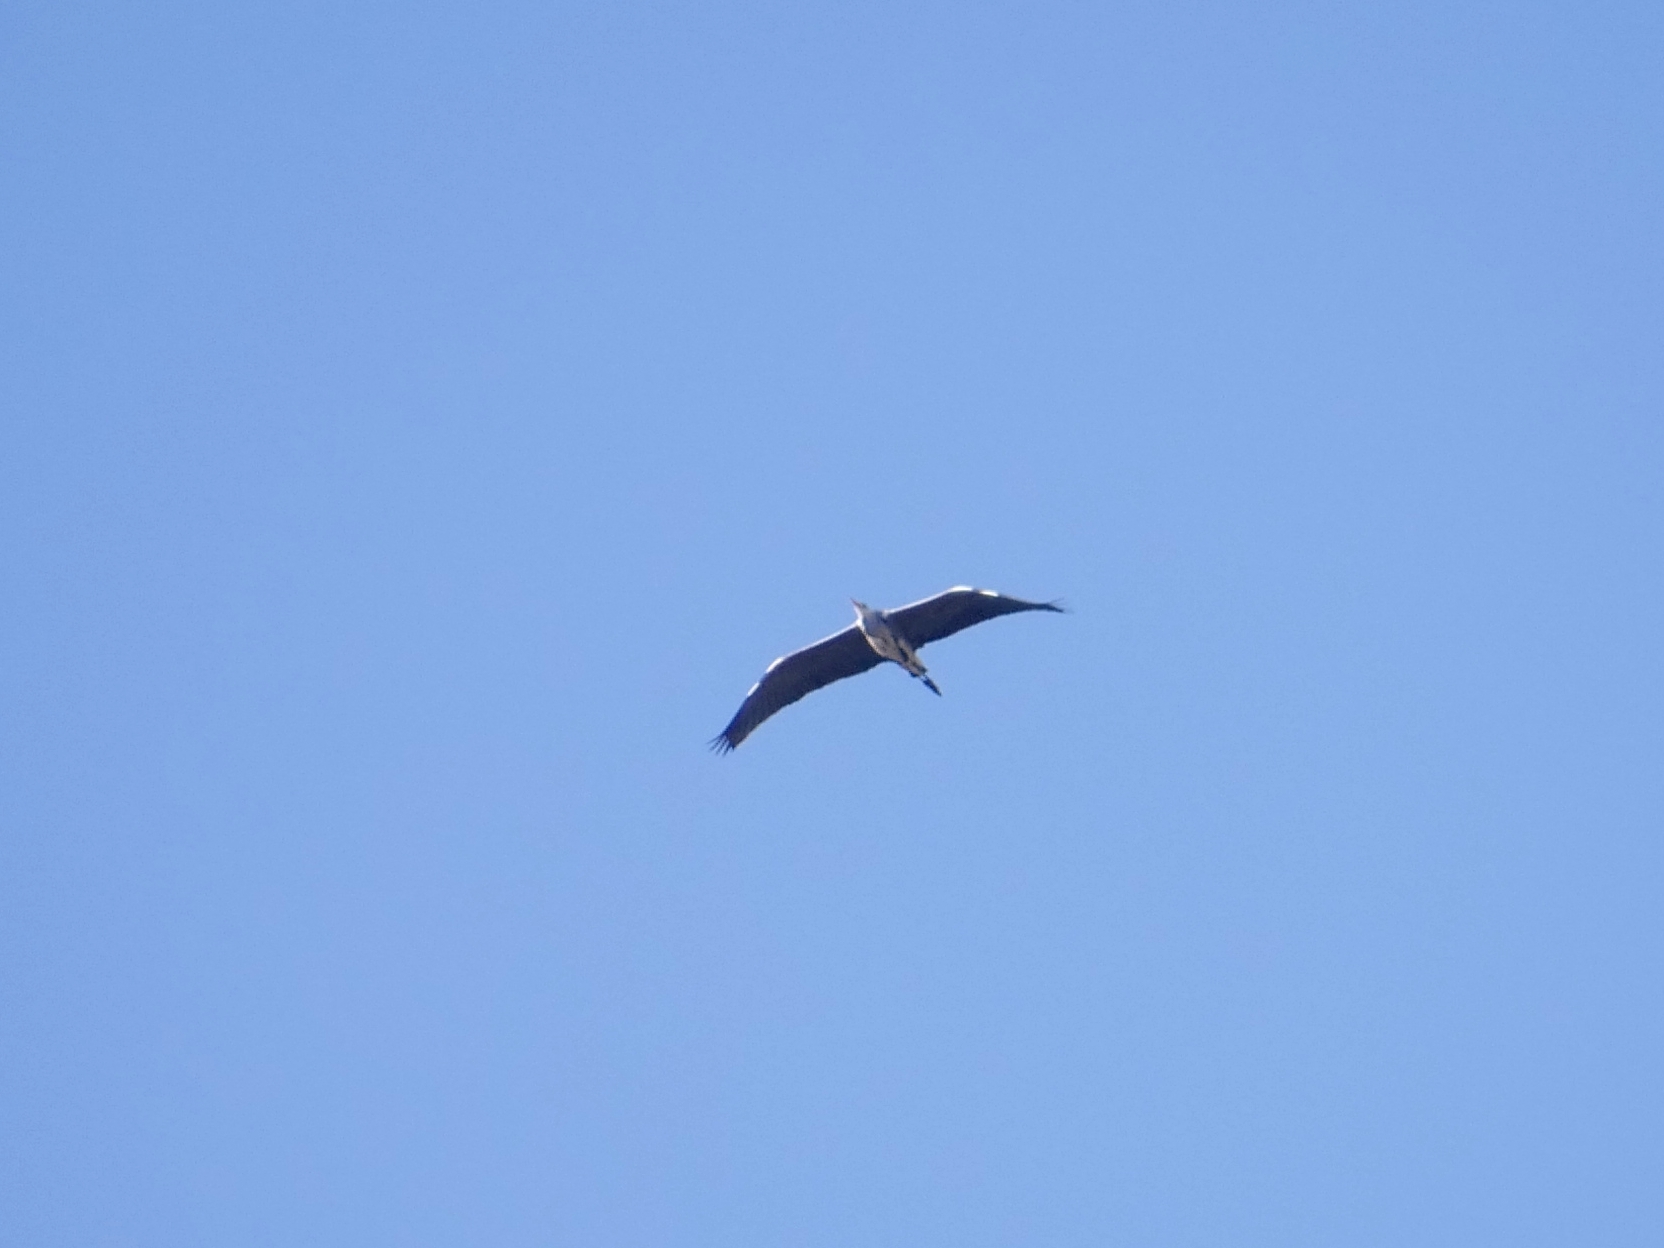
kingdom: Animalia
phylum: Chordata
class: Aves
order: Pelecaniformes
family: Ardeidae
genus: Ardea
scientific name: Ardea cinerea
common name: Grey heron
